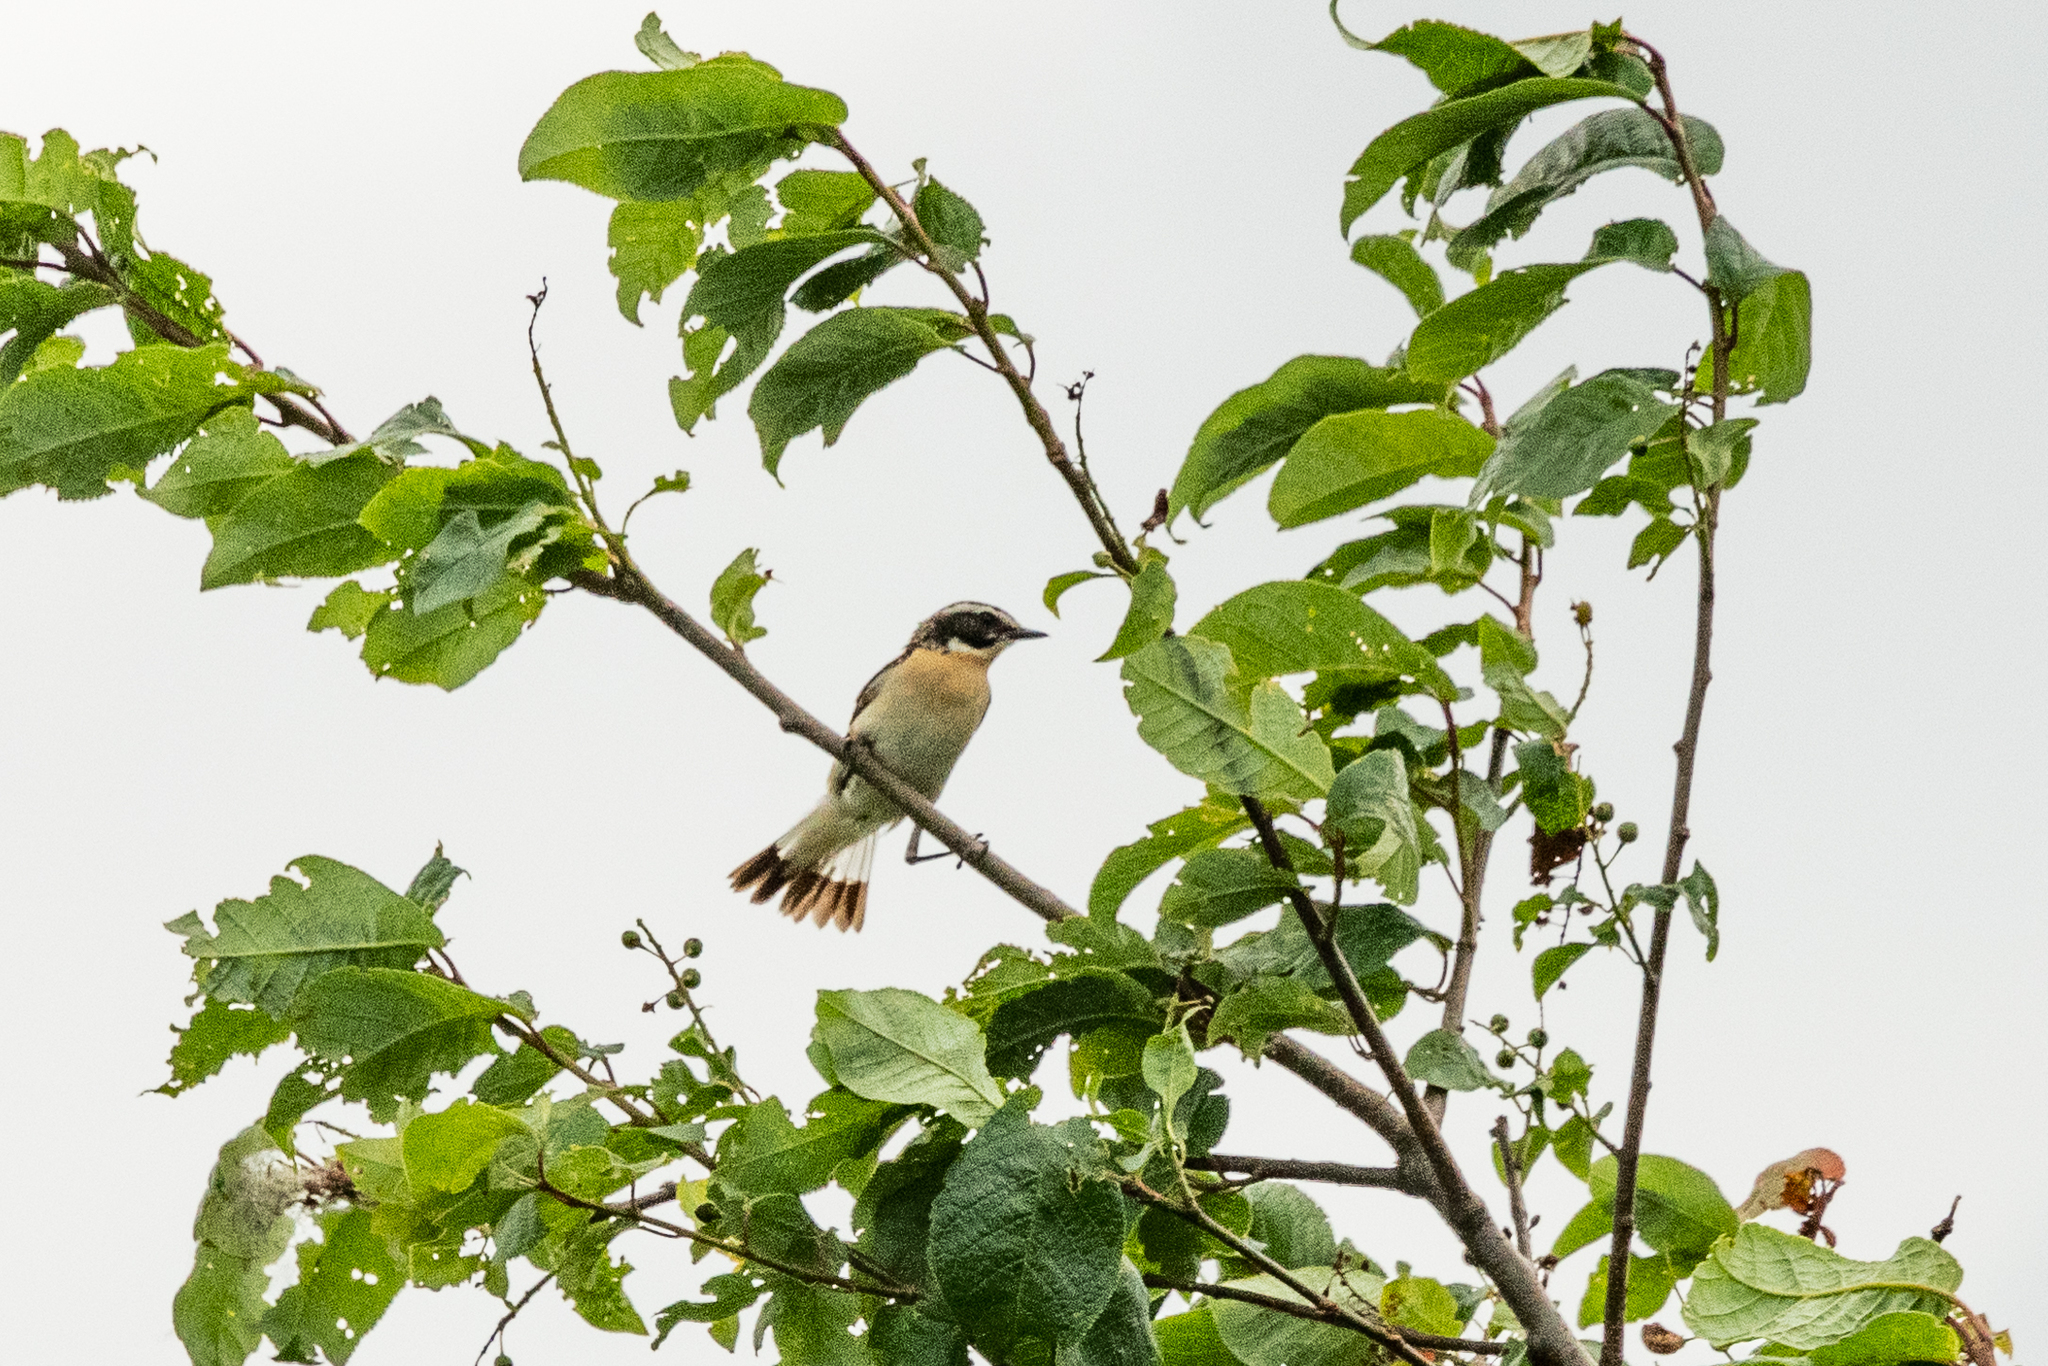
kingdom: Animalia
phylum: Chordata
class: Aves
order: Passeriformes
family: Muscicapidae
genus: Saxicola
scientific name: Saxicola rubetra
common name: Whinchat
